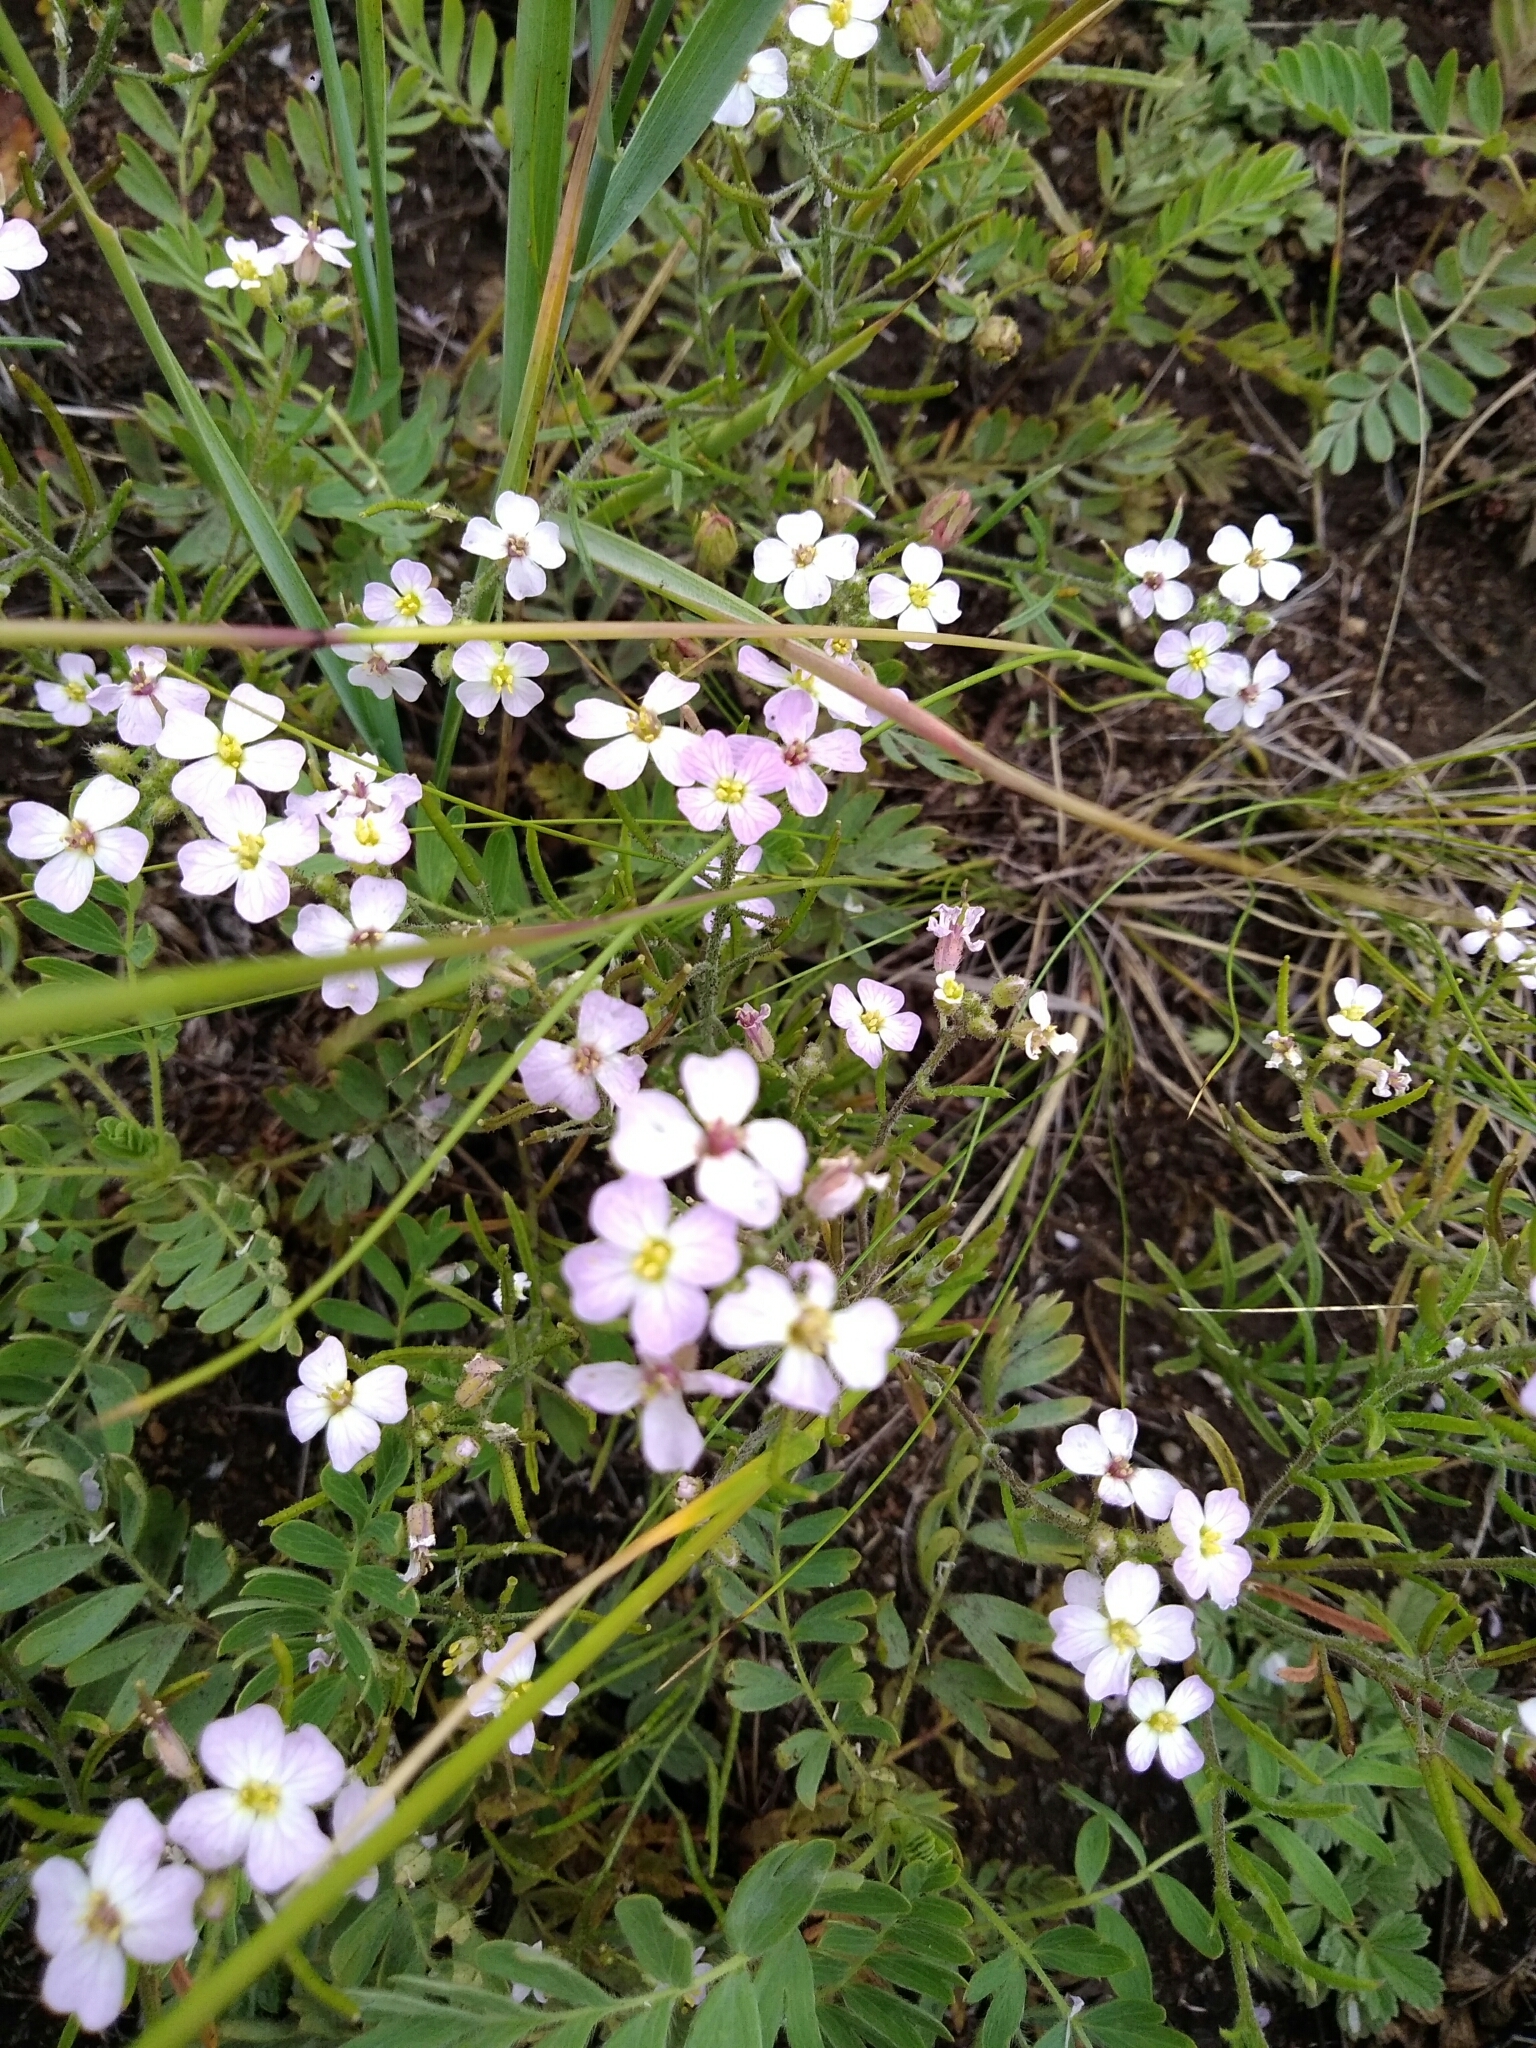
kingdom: Plantae
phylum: Tracheophyta
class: Magnoliopsida
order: Brassicales
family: Brassicaceae
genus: Dontostemon
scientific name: Dontostemon integrifolius
